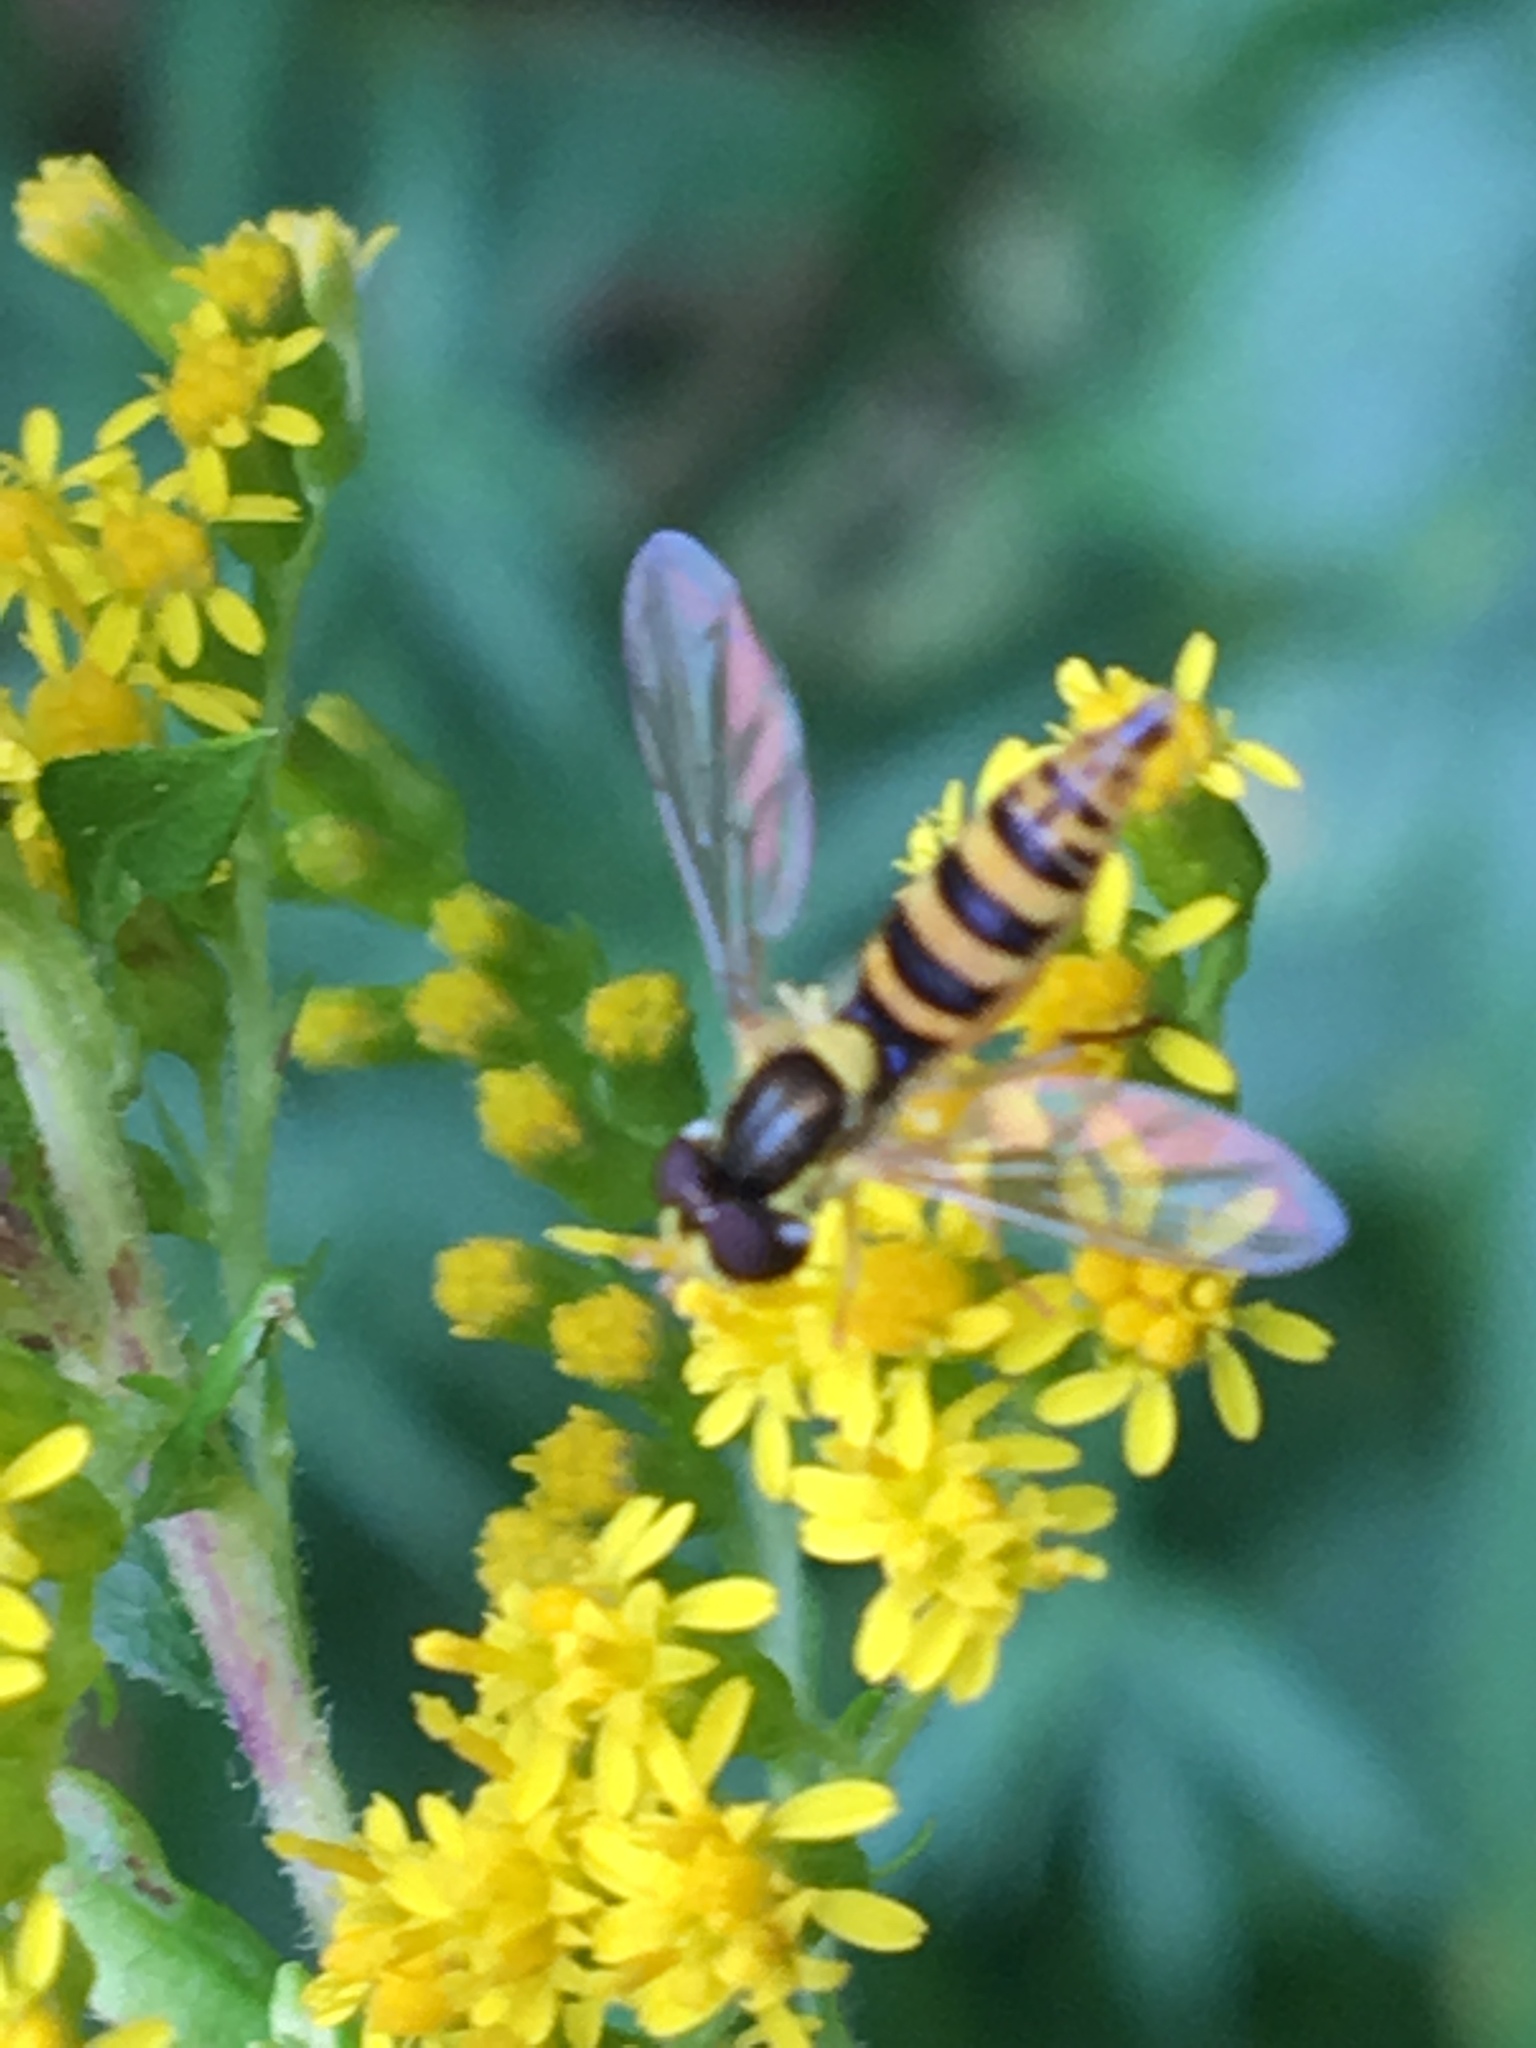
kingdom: Animalia
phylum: Arthropoda
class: Insecta
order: Diptera
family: Syrphidae
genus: Sphaerophoria
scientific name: Sphaerophoria
